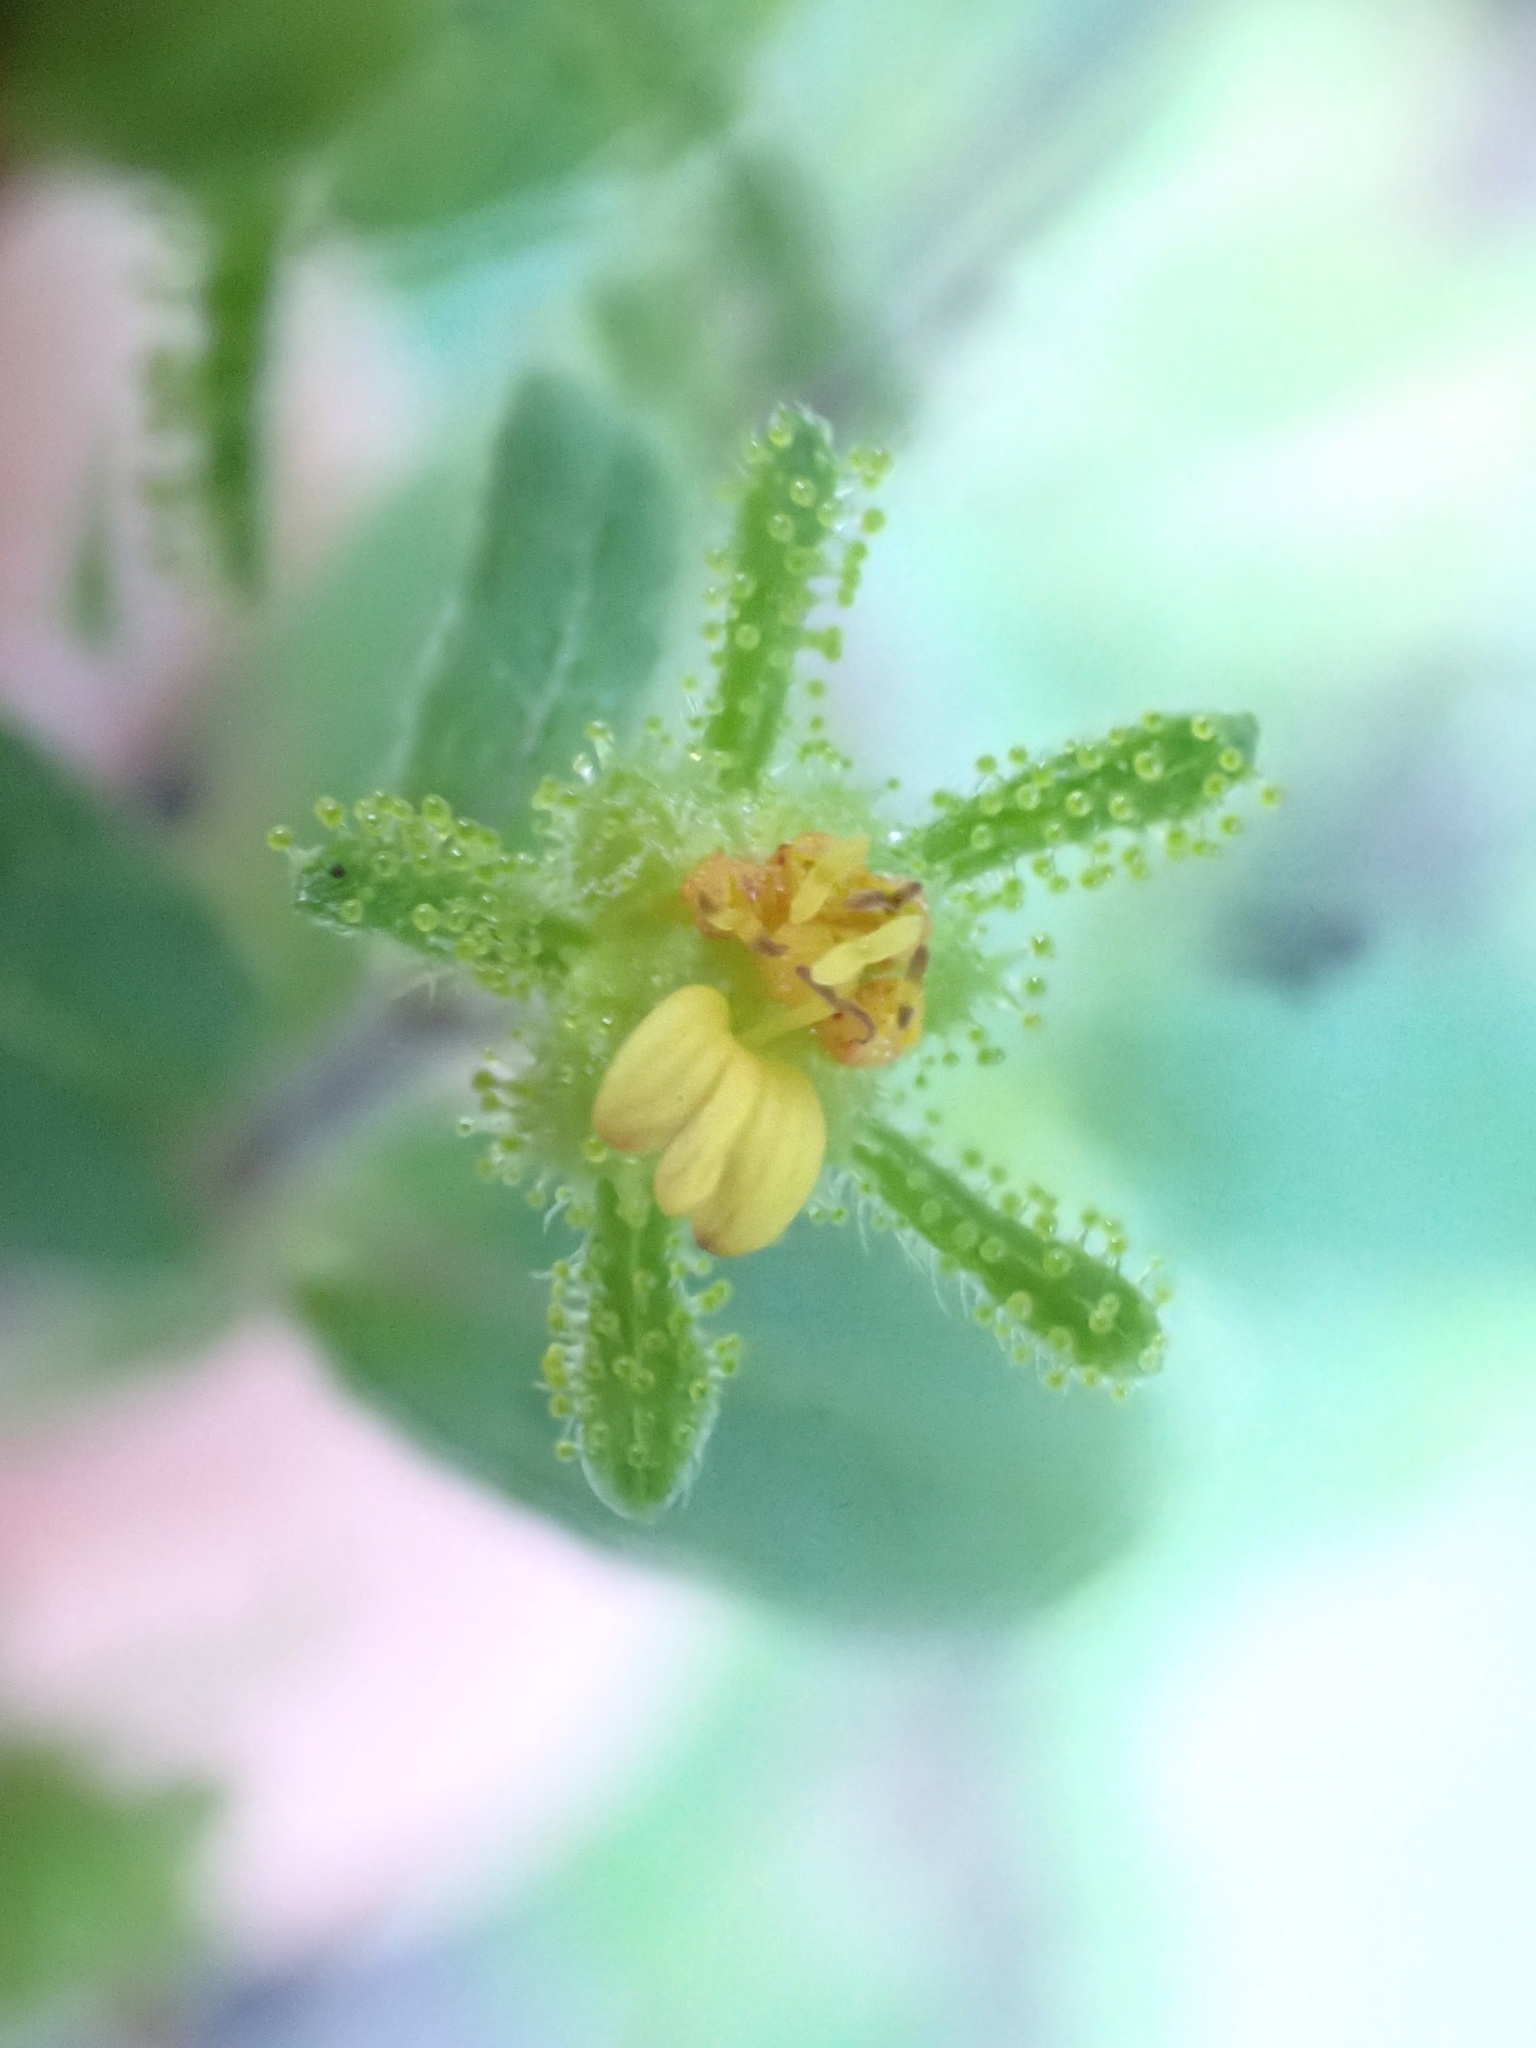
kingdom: Plantae
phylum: Tracheophyta
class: Magnoliopsida
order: Asterales
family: Asteraceae
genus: Sigesbeckia
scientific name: Sigesbeckia orientalis
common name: Eastern st paul's-wort
